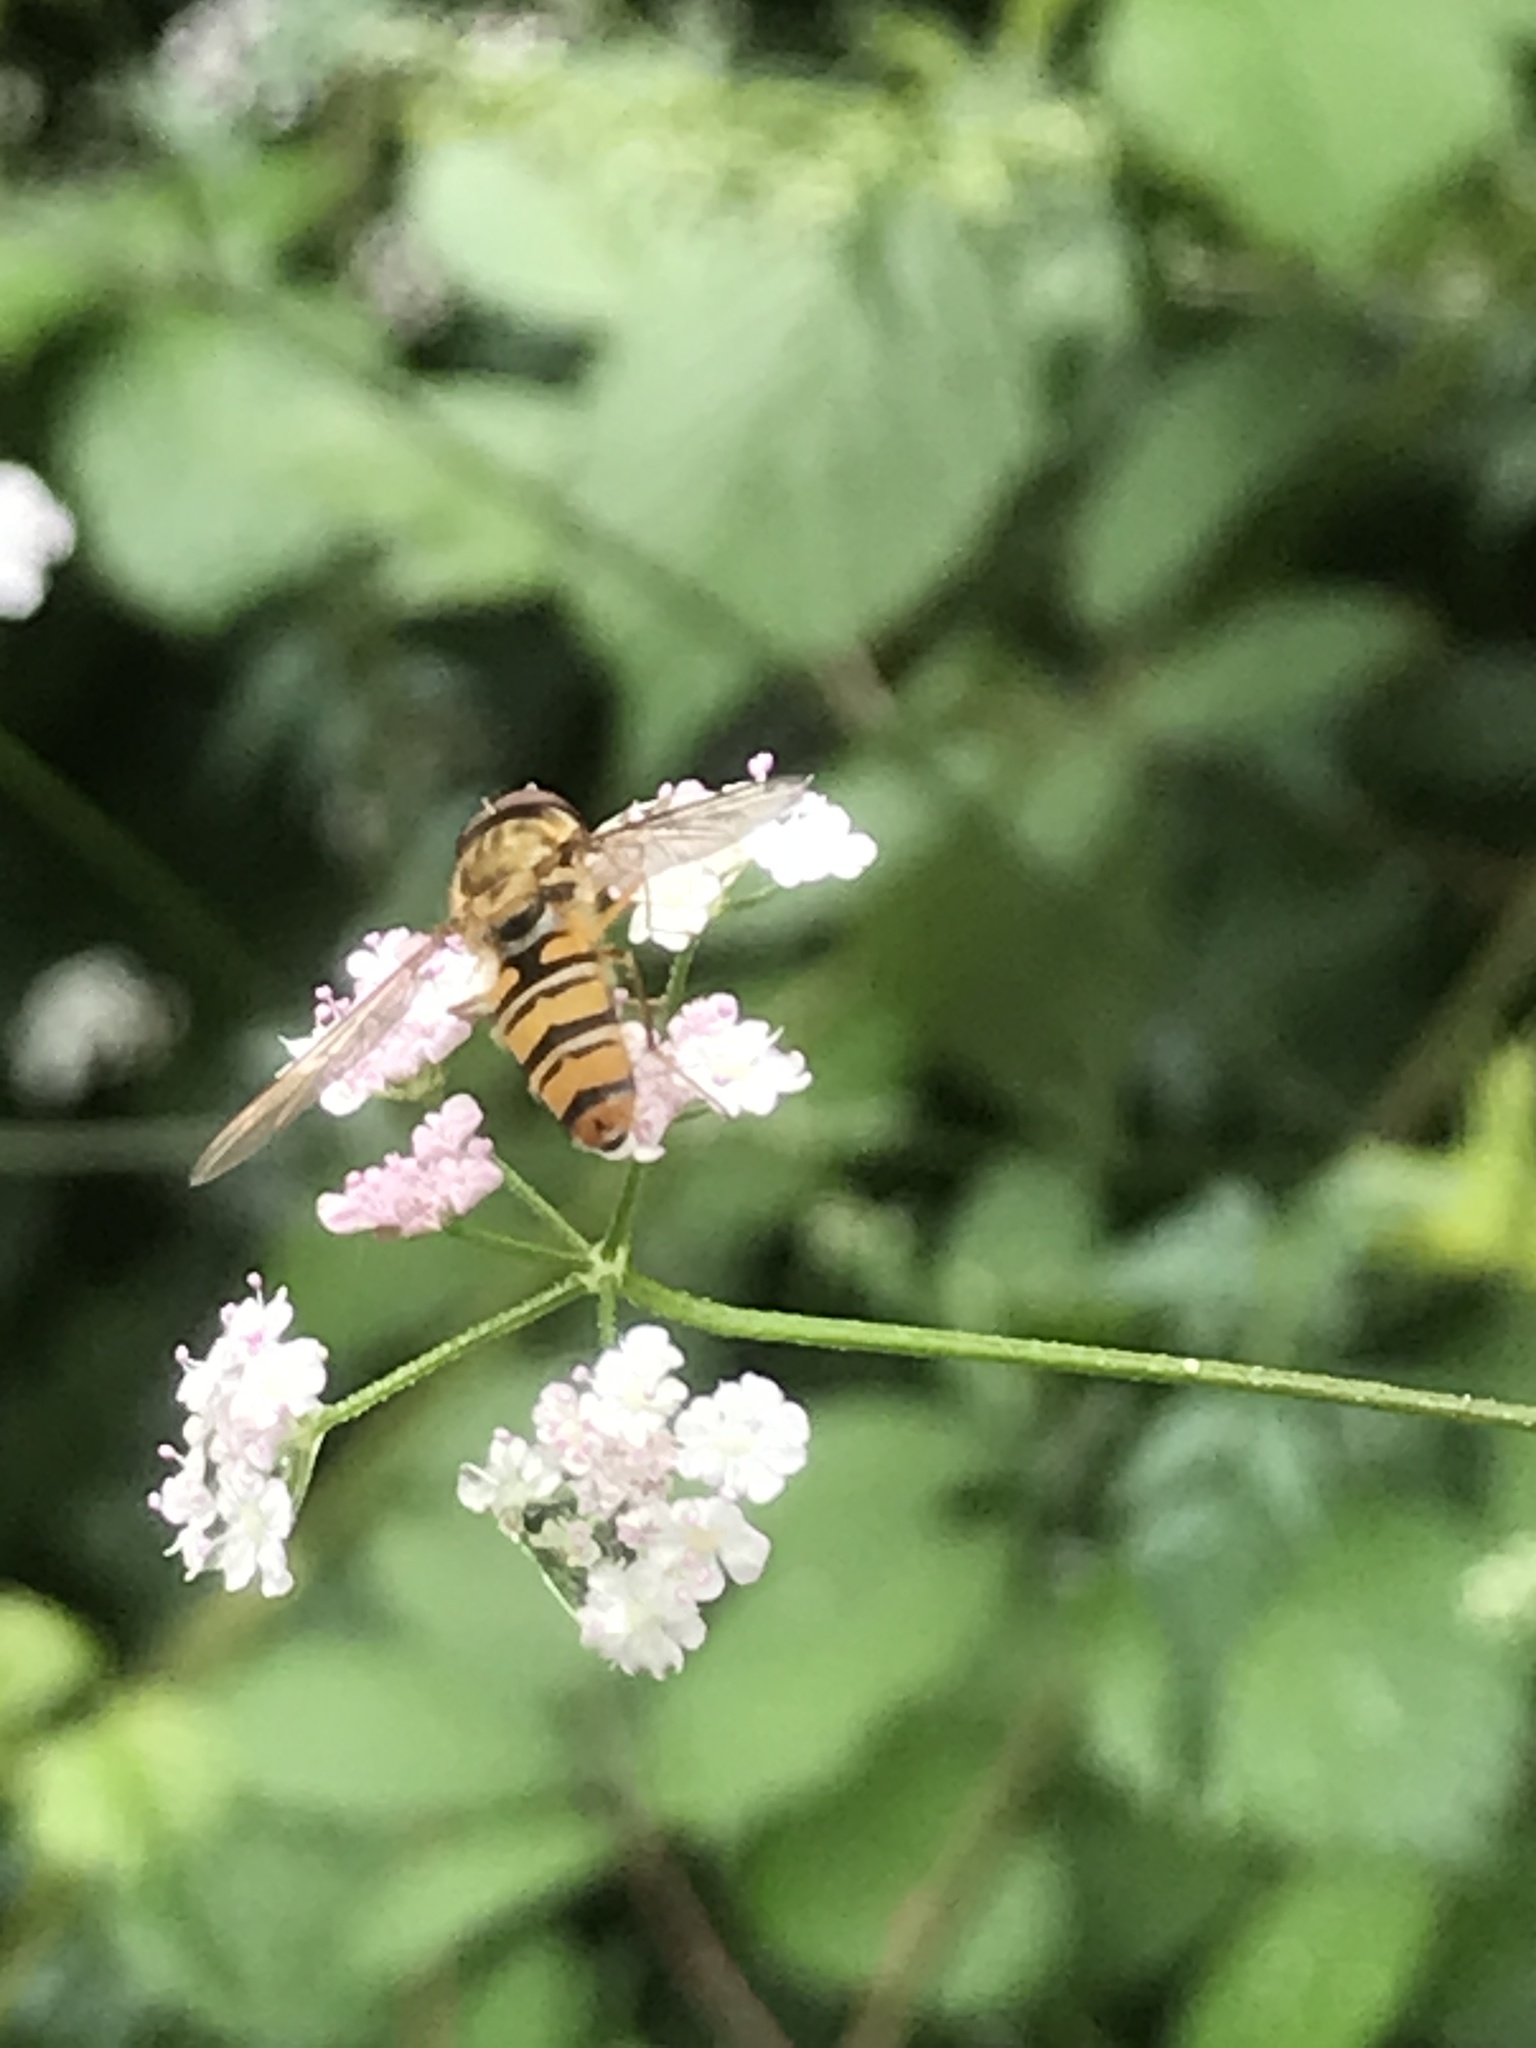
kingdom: Animalia
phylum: Arthropoda
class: Insecta
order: Diptera
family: Syrphidae
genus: Episyrphus
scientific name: Episyrphus balteatus
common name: Marmalade hoverfly
